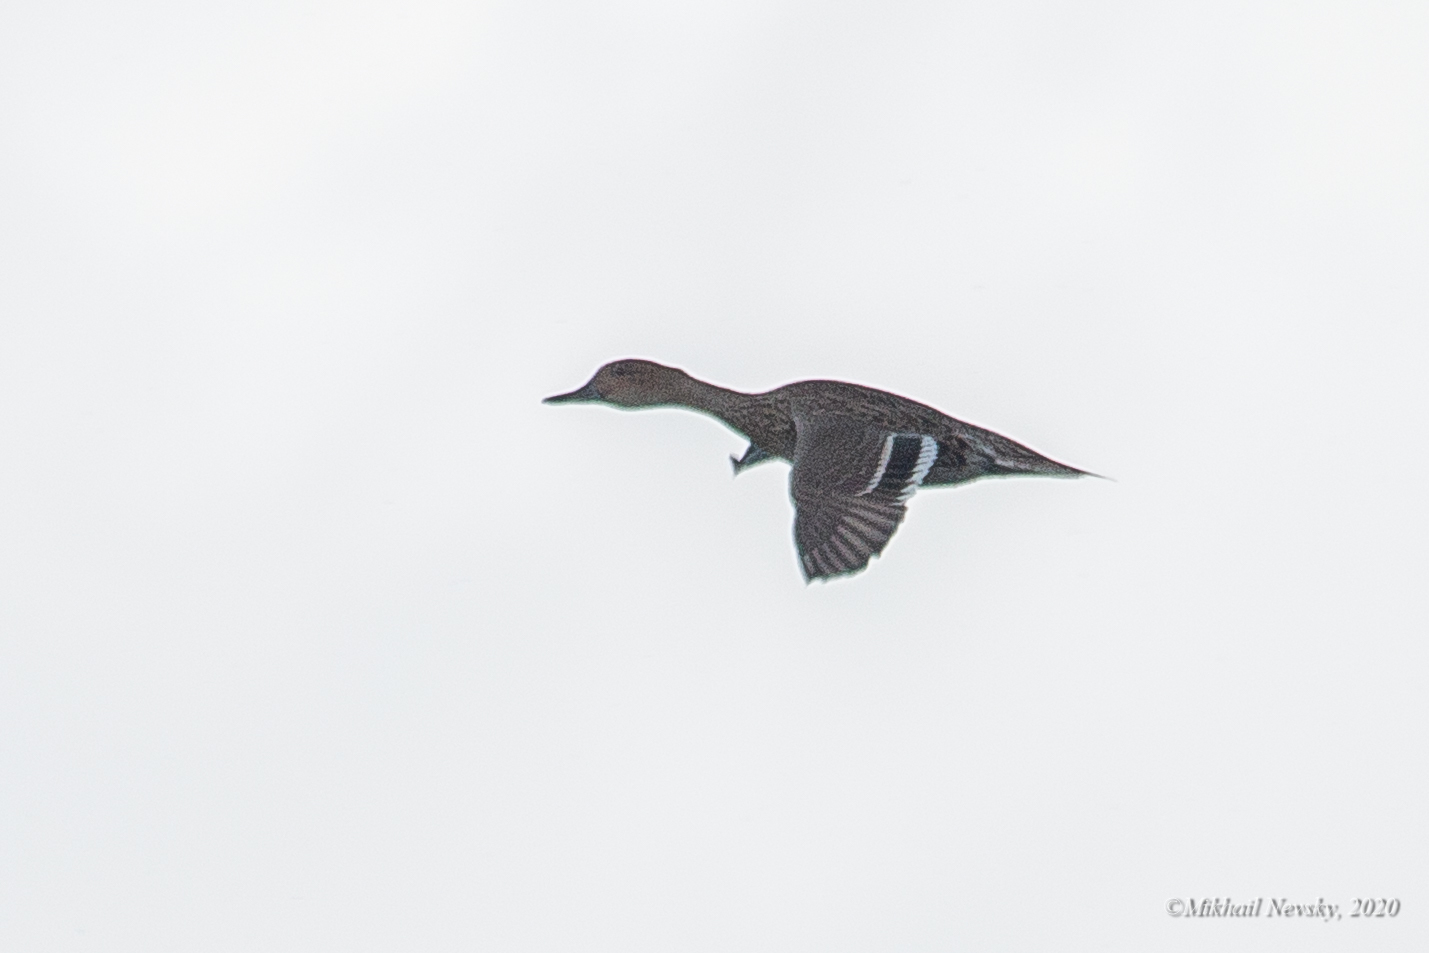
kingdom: Animalia
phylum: Chordata
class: Aves
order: Anseriformes
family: Anatidae
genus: Anas
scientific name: Anas acuta
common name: Northern pintail
